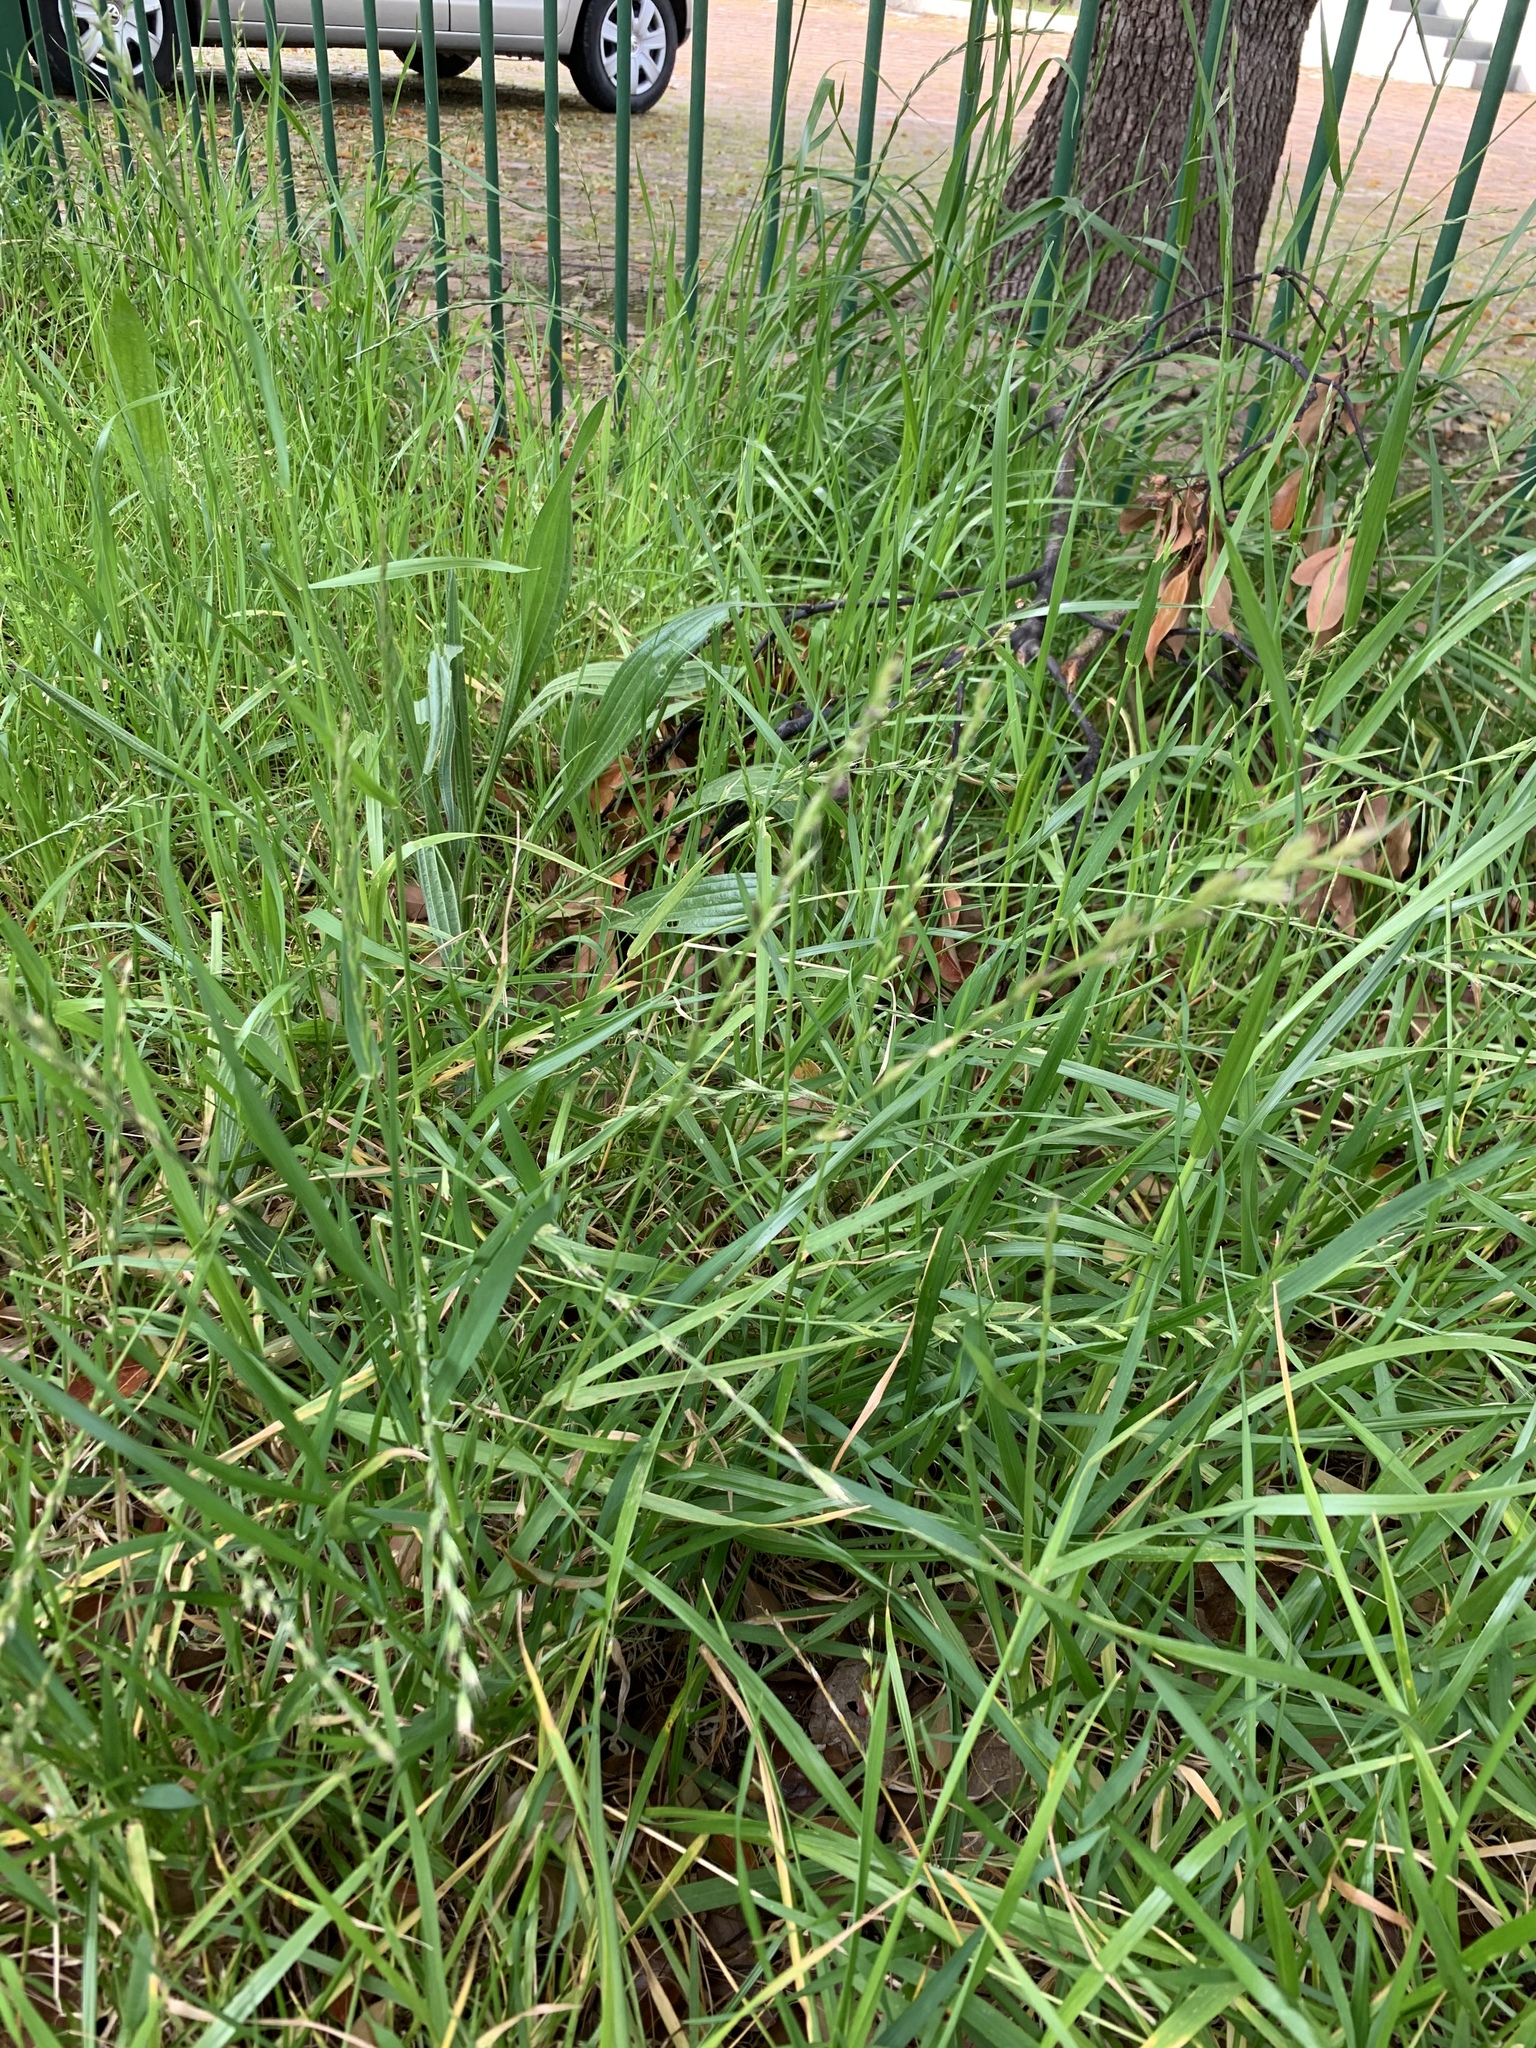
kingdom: Plantae
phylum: Tracheophyta
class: Liliopsida
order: Poales
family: Poaceae
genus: Lolium
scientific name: Lolium multiflorum
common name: Annual ryegrass
